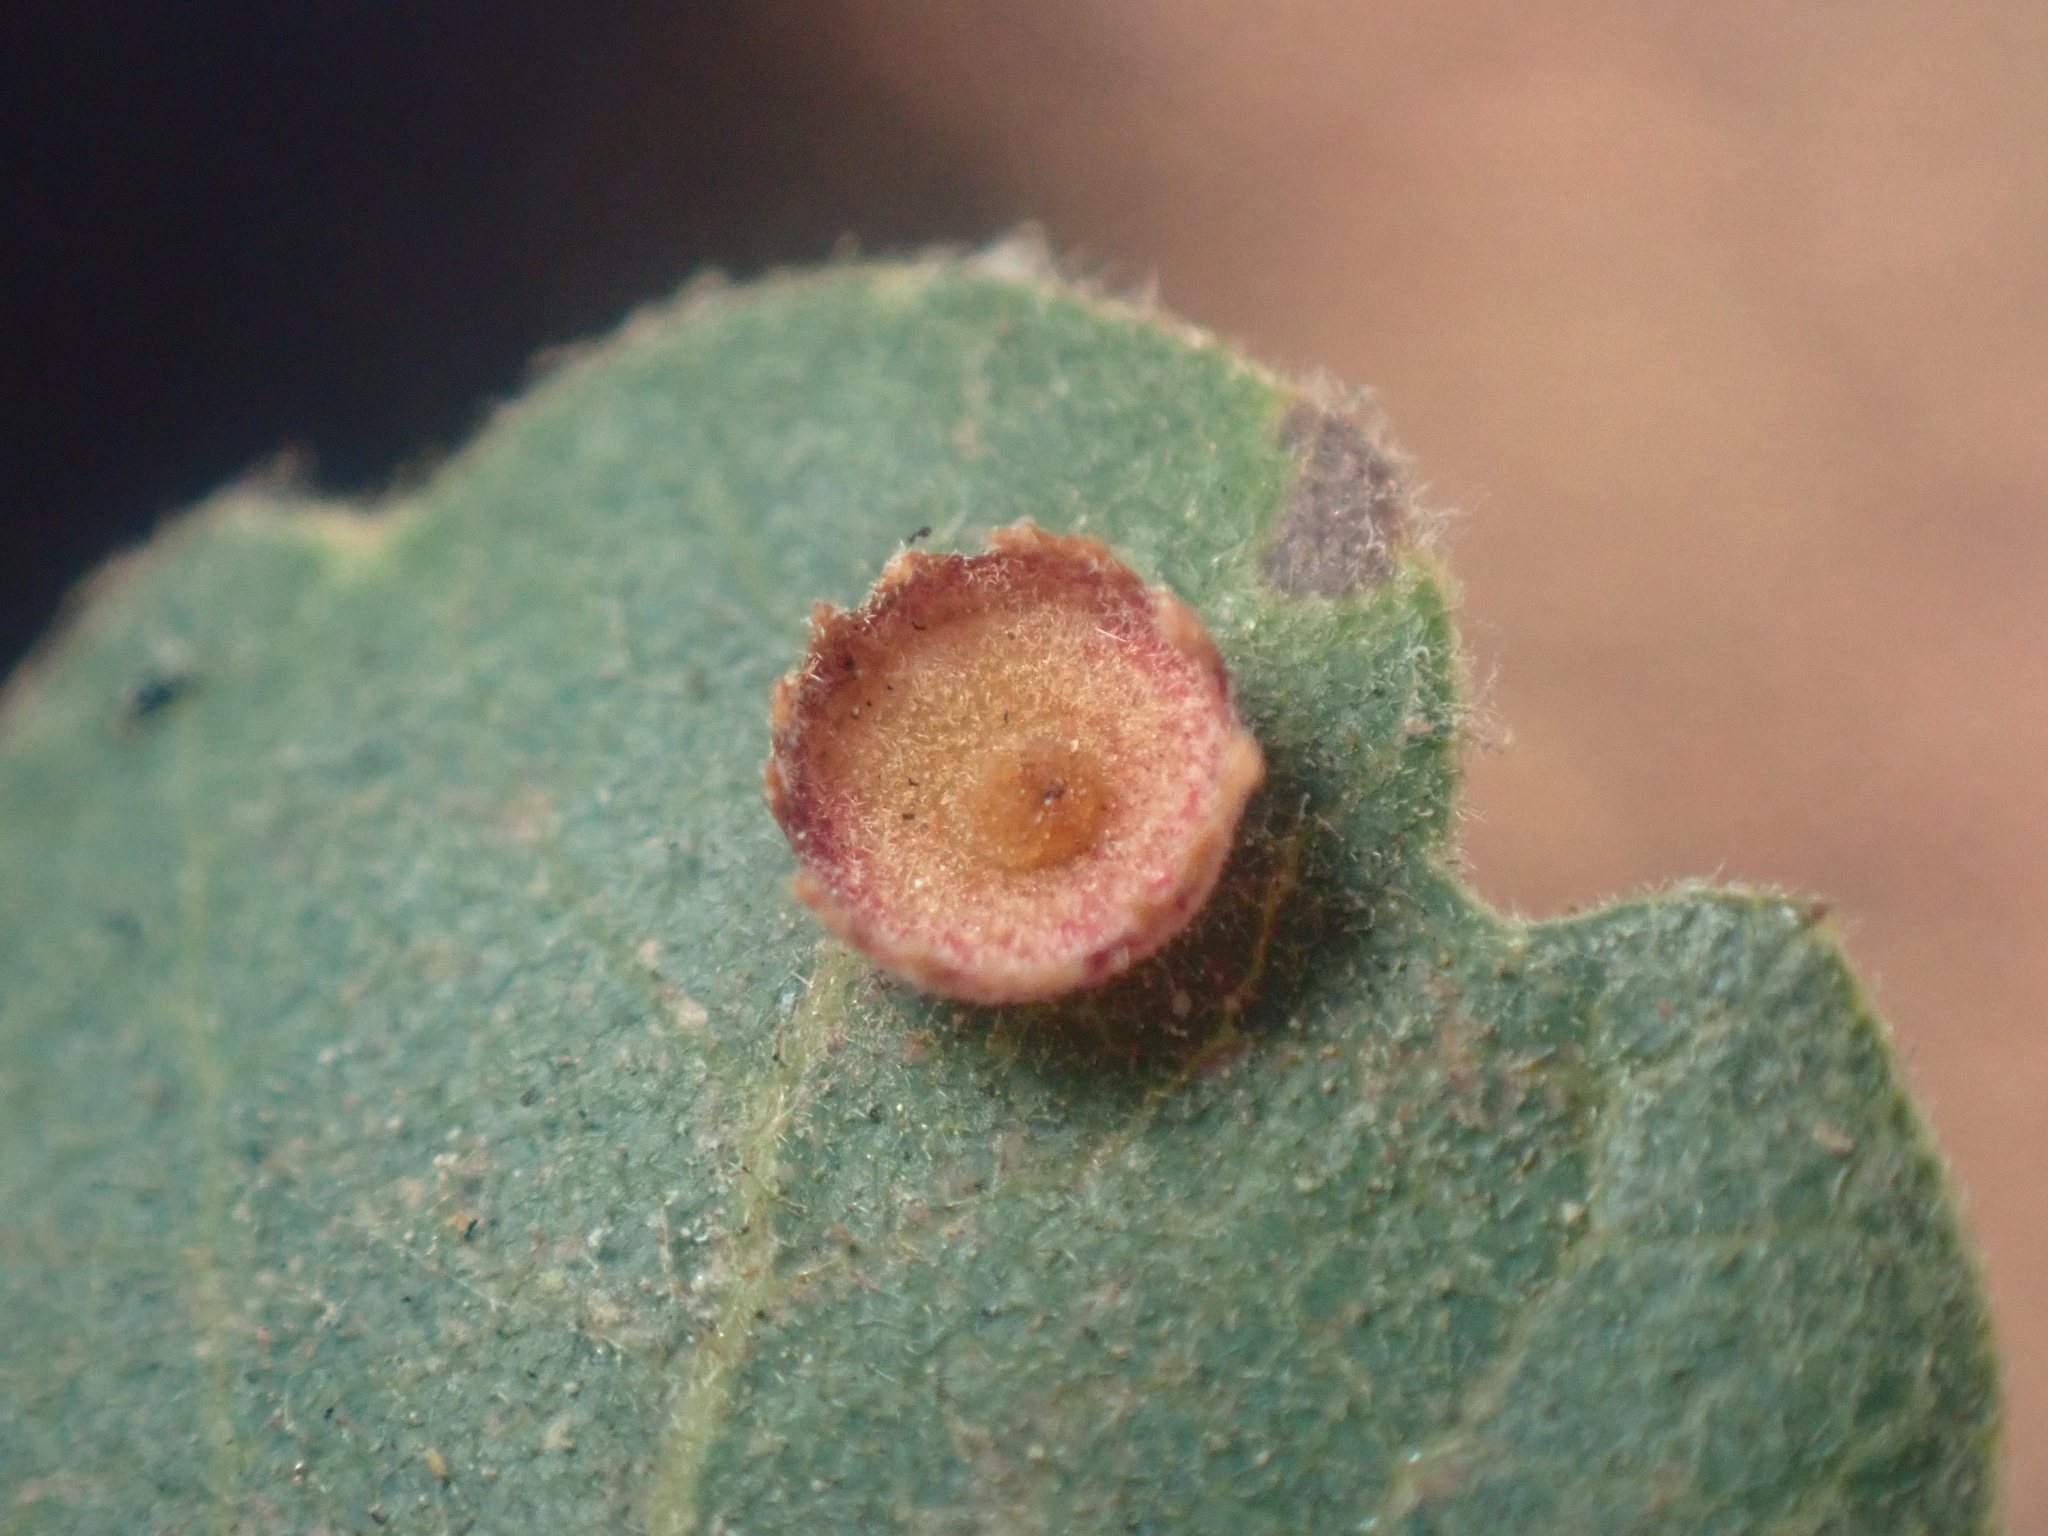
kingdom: Animalia
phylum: Arthropoda
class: Insecta
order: Hymenoptera
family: Cynipidae
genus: Andricus
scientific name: Andricus
